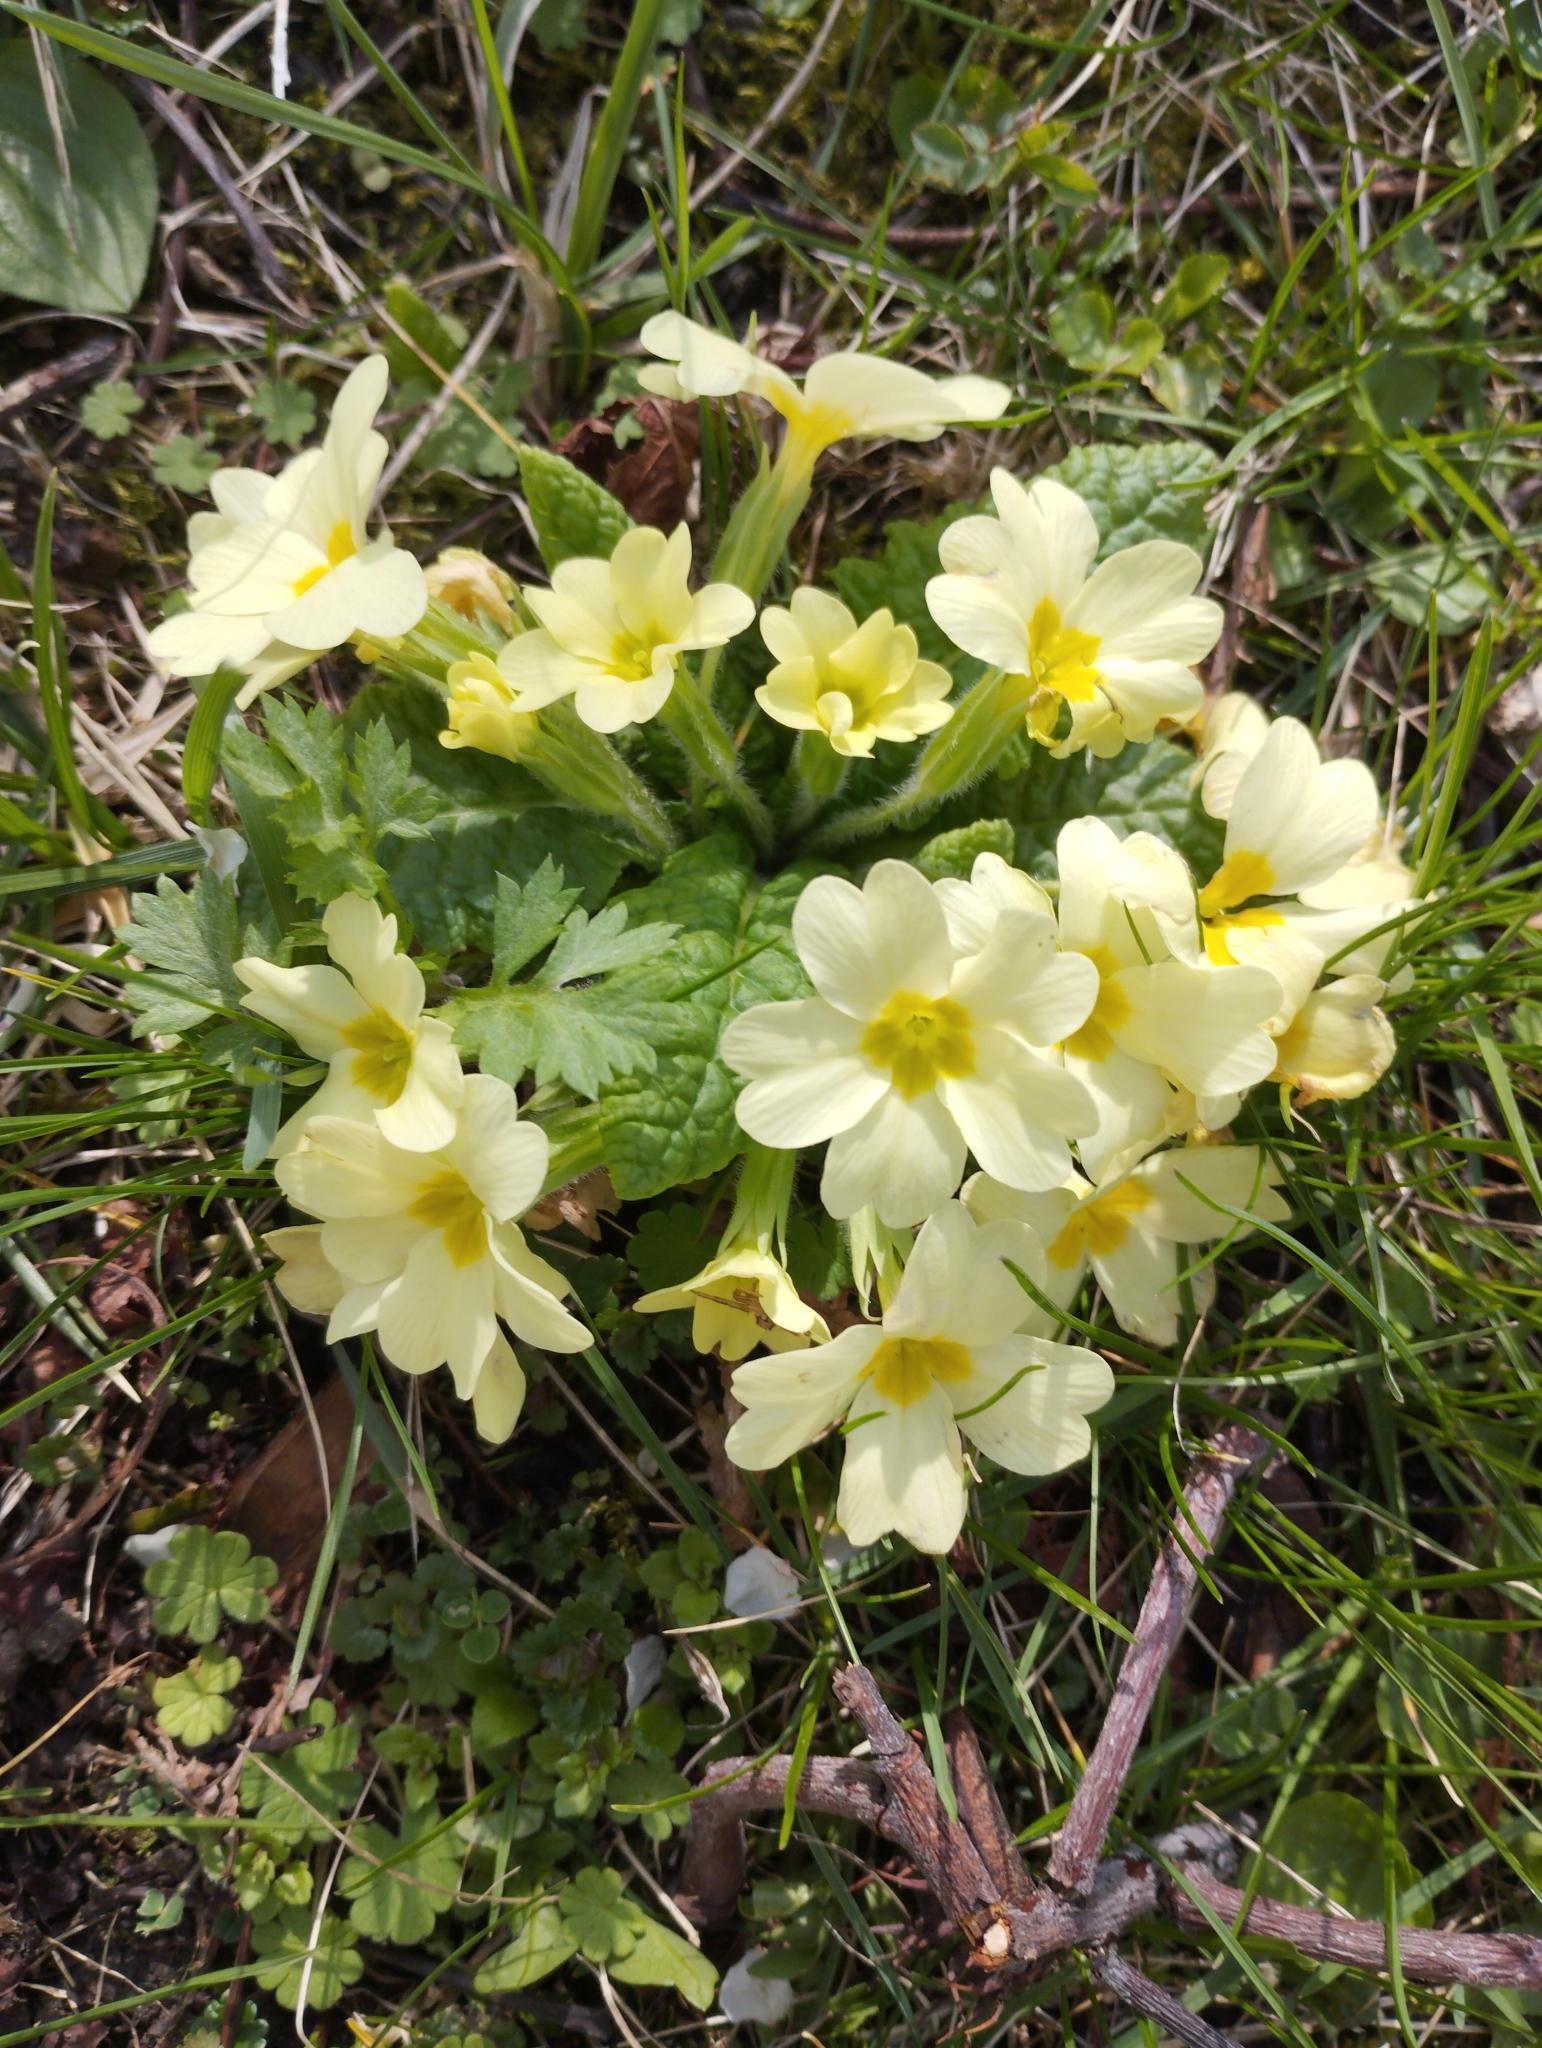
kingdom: Plantae
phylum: Tracheophyta
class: Magnoliopsida
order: Ericales
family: Primulaceae
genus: Primula
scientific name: Primula vulgaris
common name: Primrose
